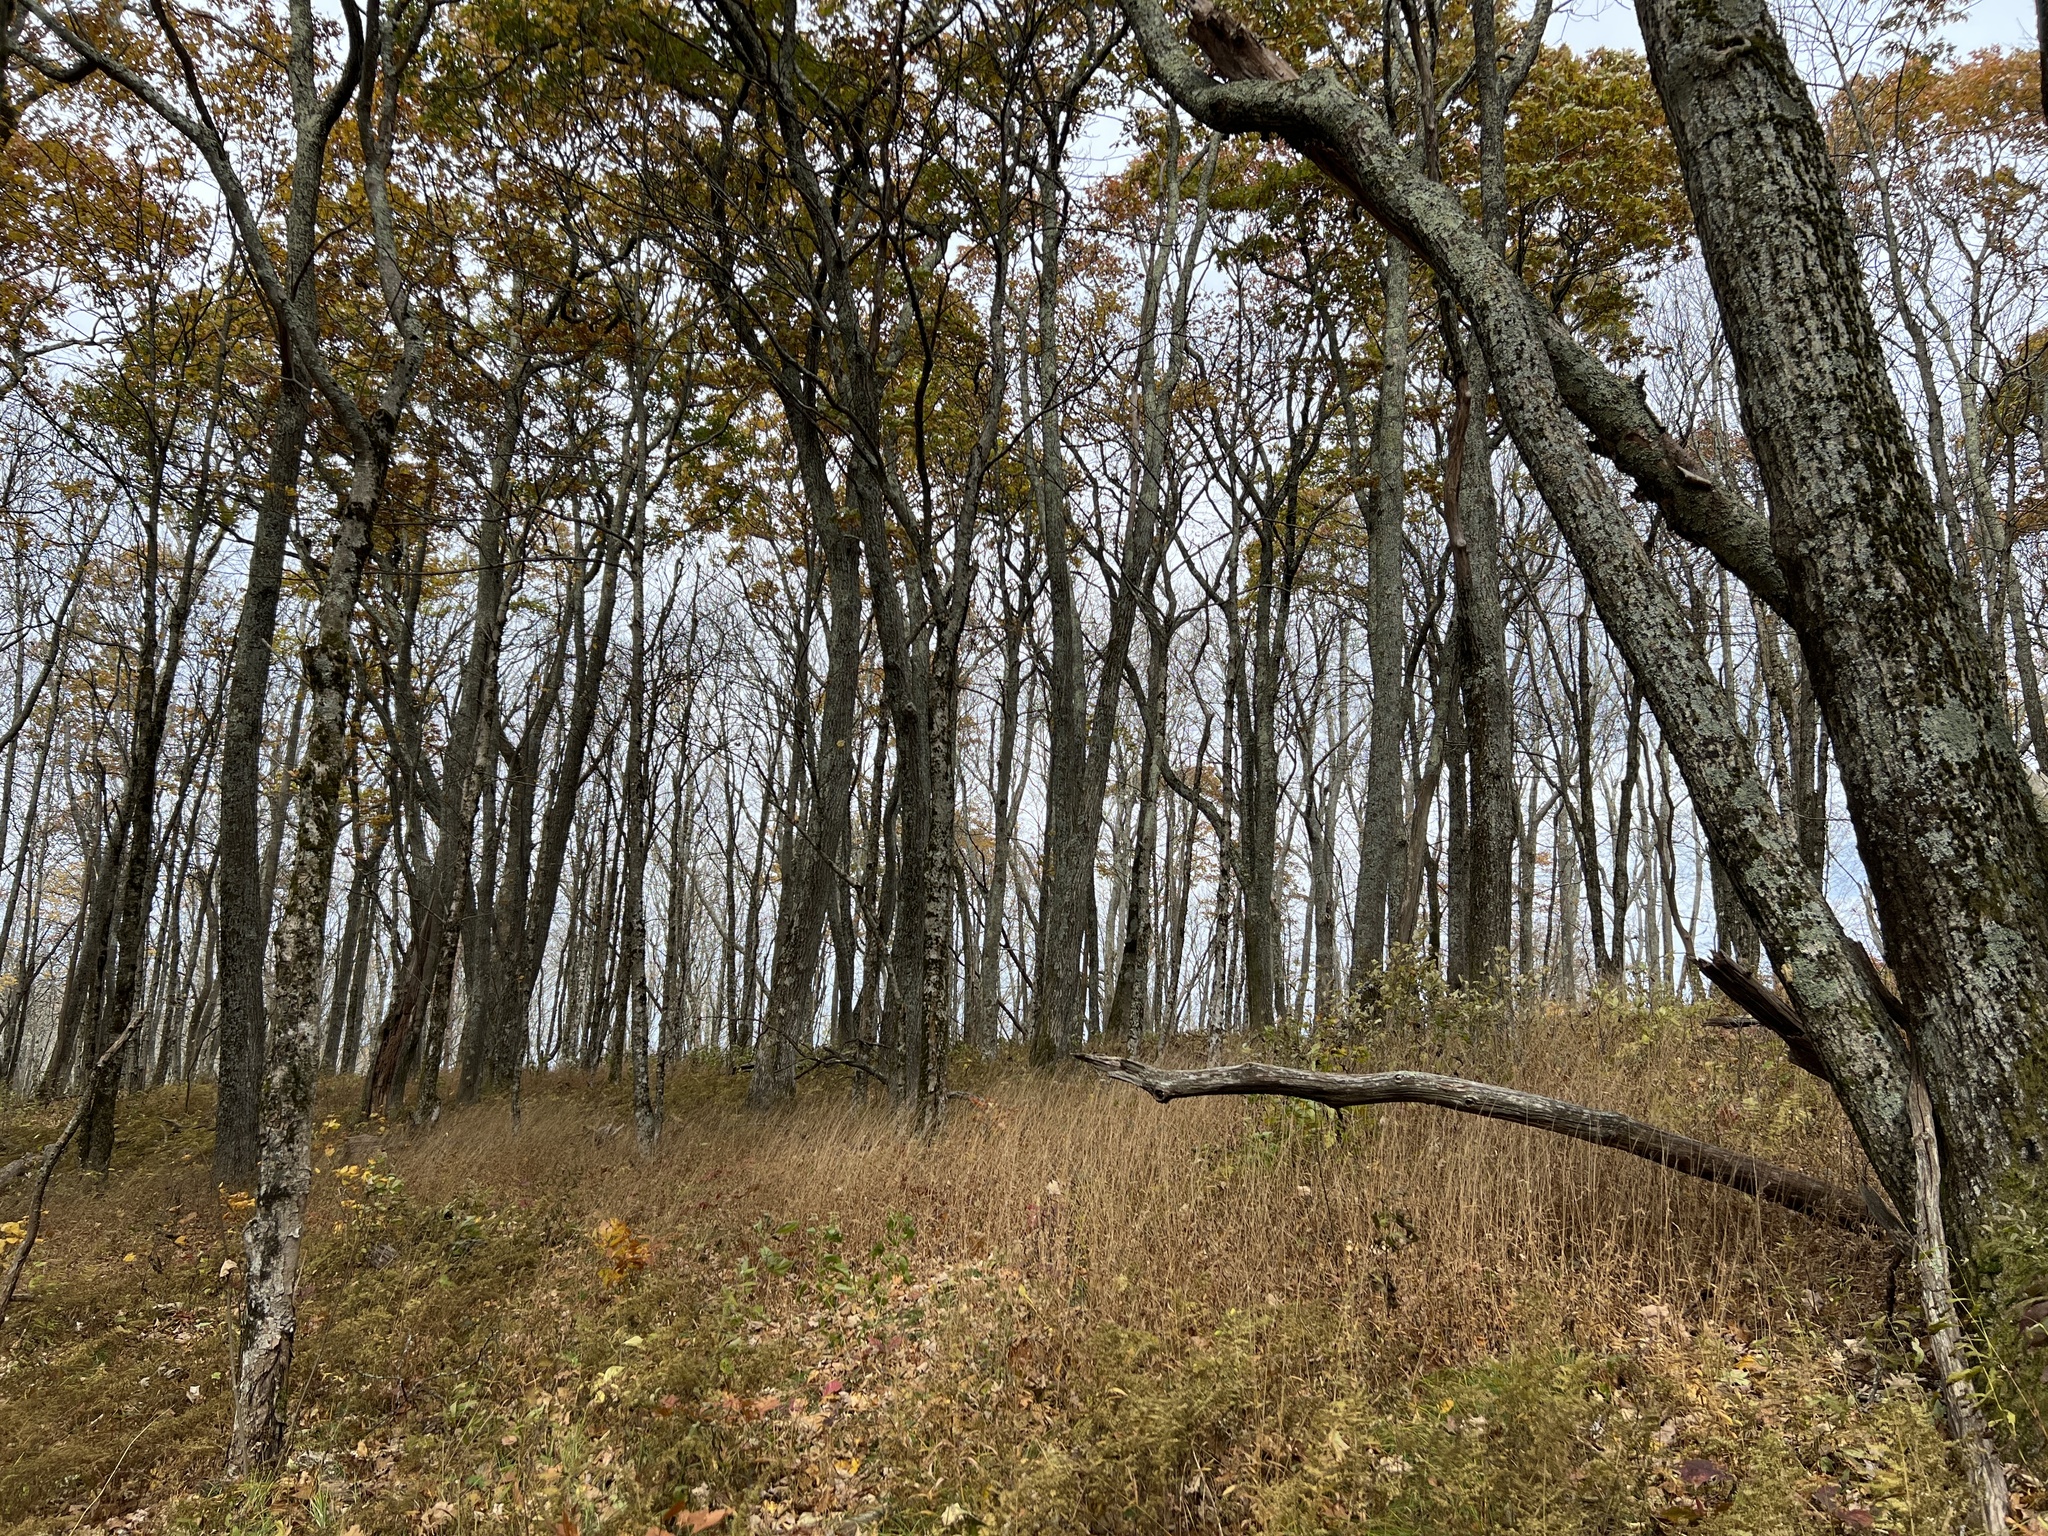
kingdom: Plantae
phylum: Tracheophyta
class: Liliopsida
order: Poales
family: Poaceae
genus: Brachyelytrum
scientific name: Brachyelytrum aristosum
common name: Northern shorthusk
